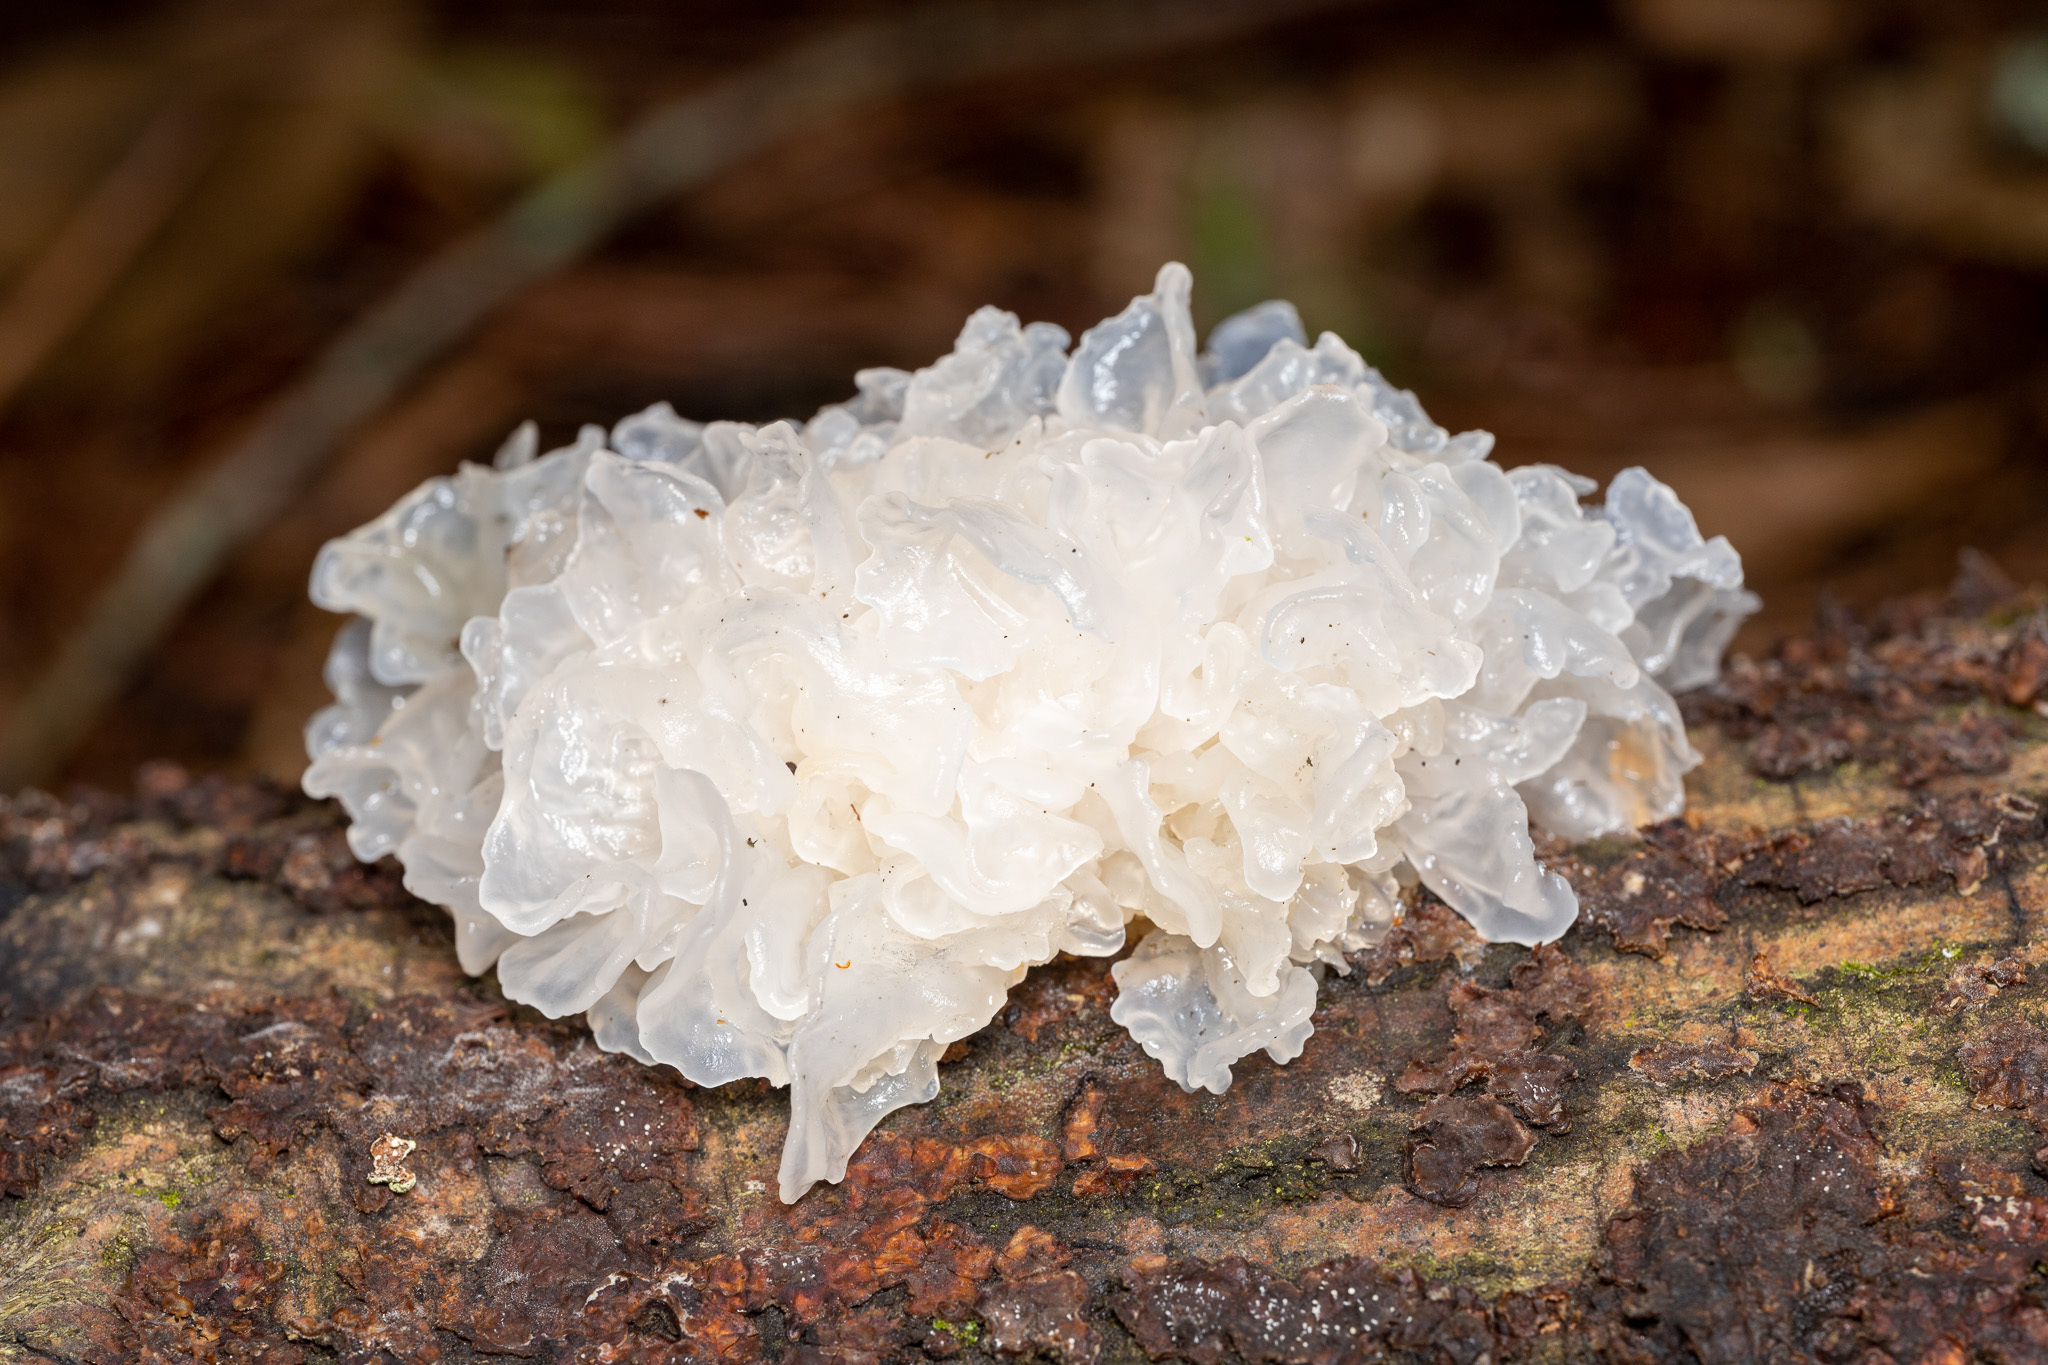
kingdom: Fungi
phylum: Basidiomycota
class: Tremellomycetes
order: Tremellales
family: Tremellaceae
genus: Tremella
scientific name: Tremella fuciformis
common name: Snow fungus
